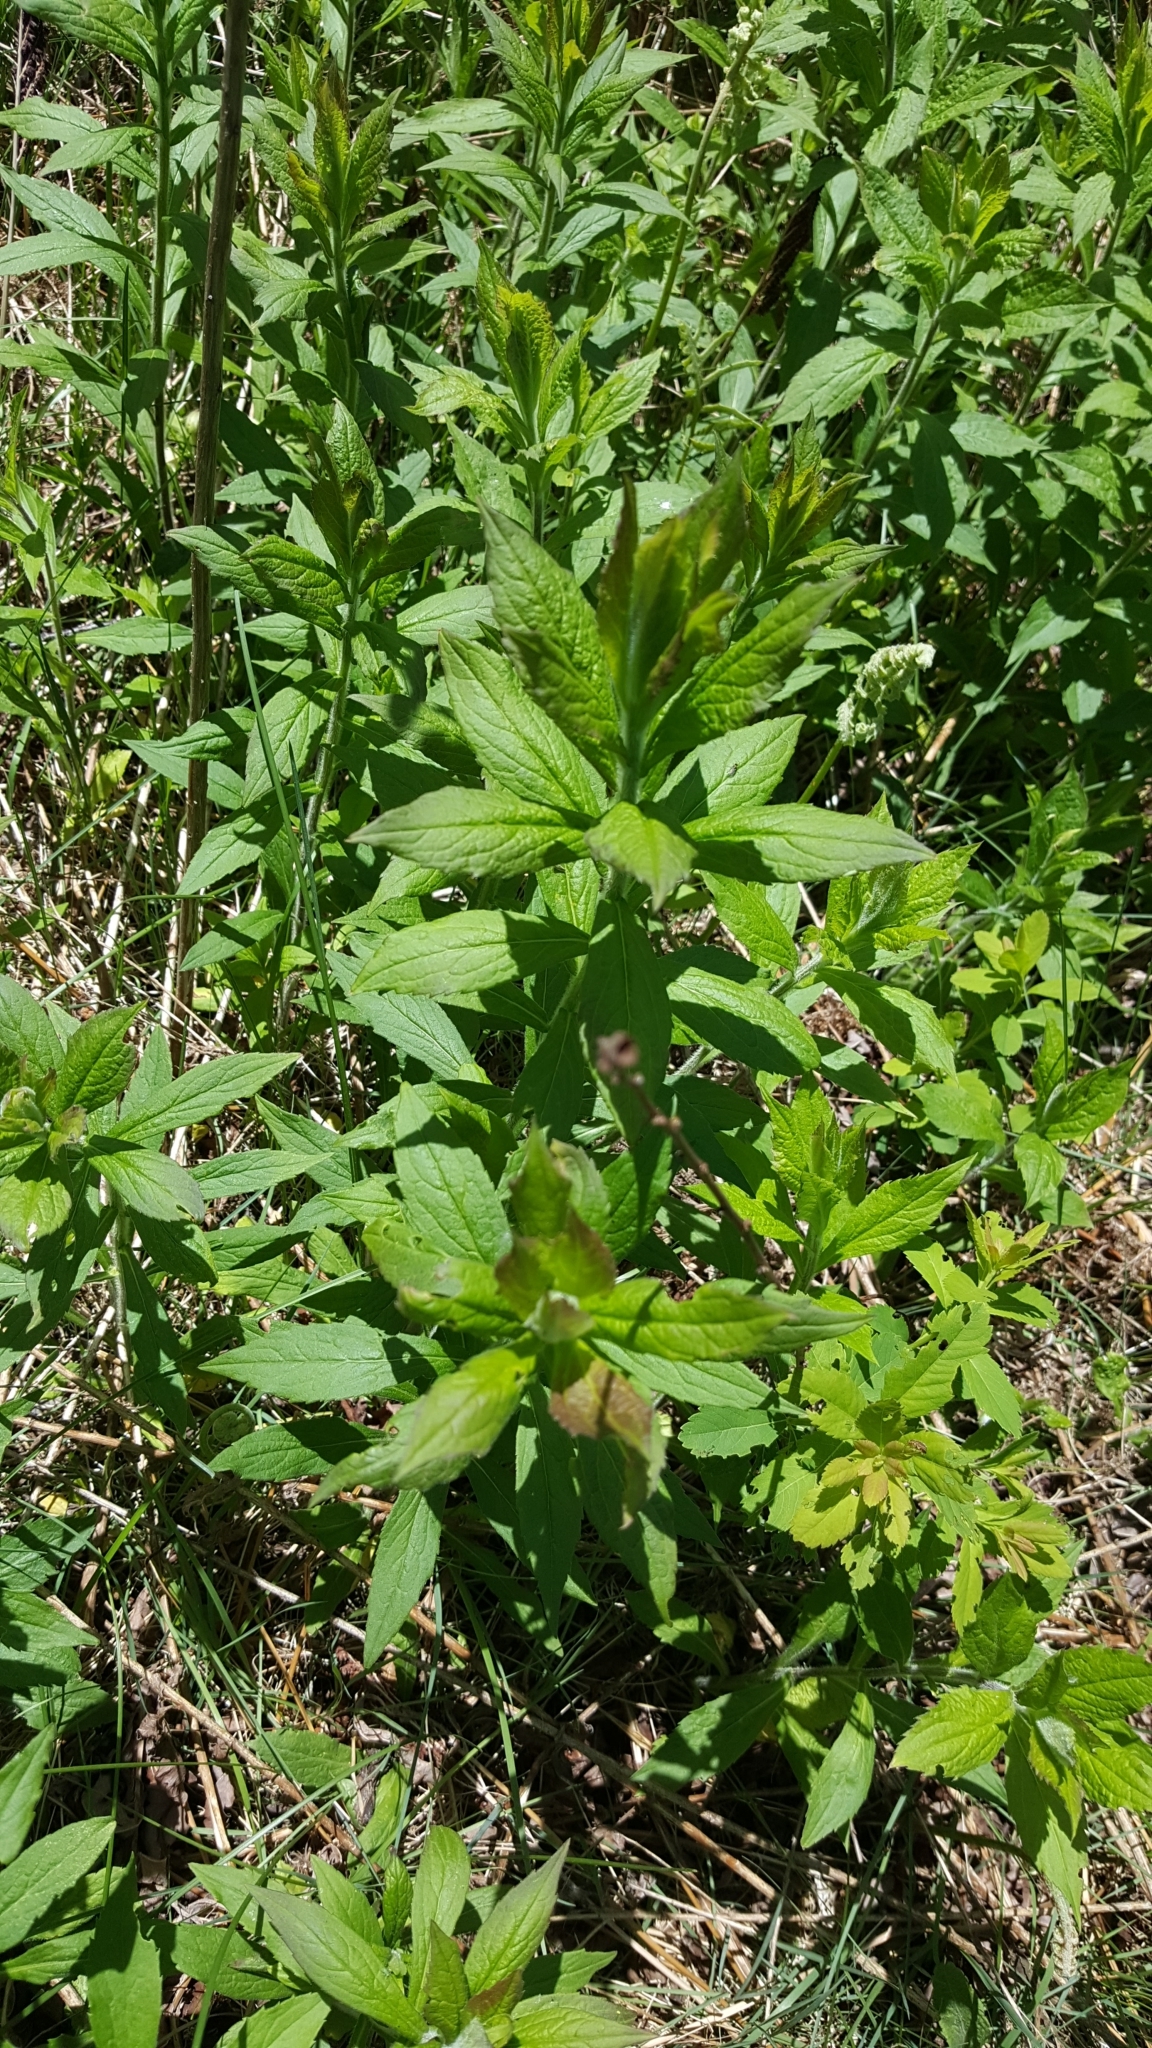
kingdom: Plantae
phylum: Tracheophyta
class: Magnoliopsida
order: Asterales
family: Asteraceae
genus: Solidago
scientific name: Solidago rugosa
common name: Rough-stemmed goldenrod
